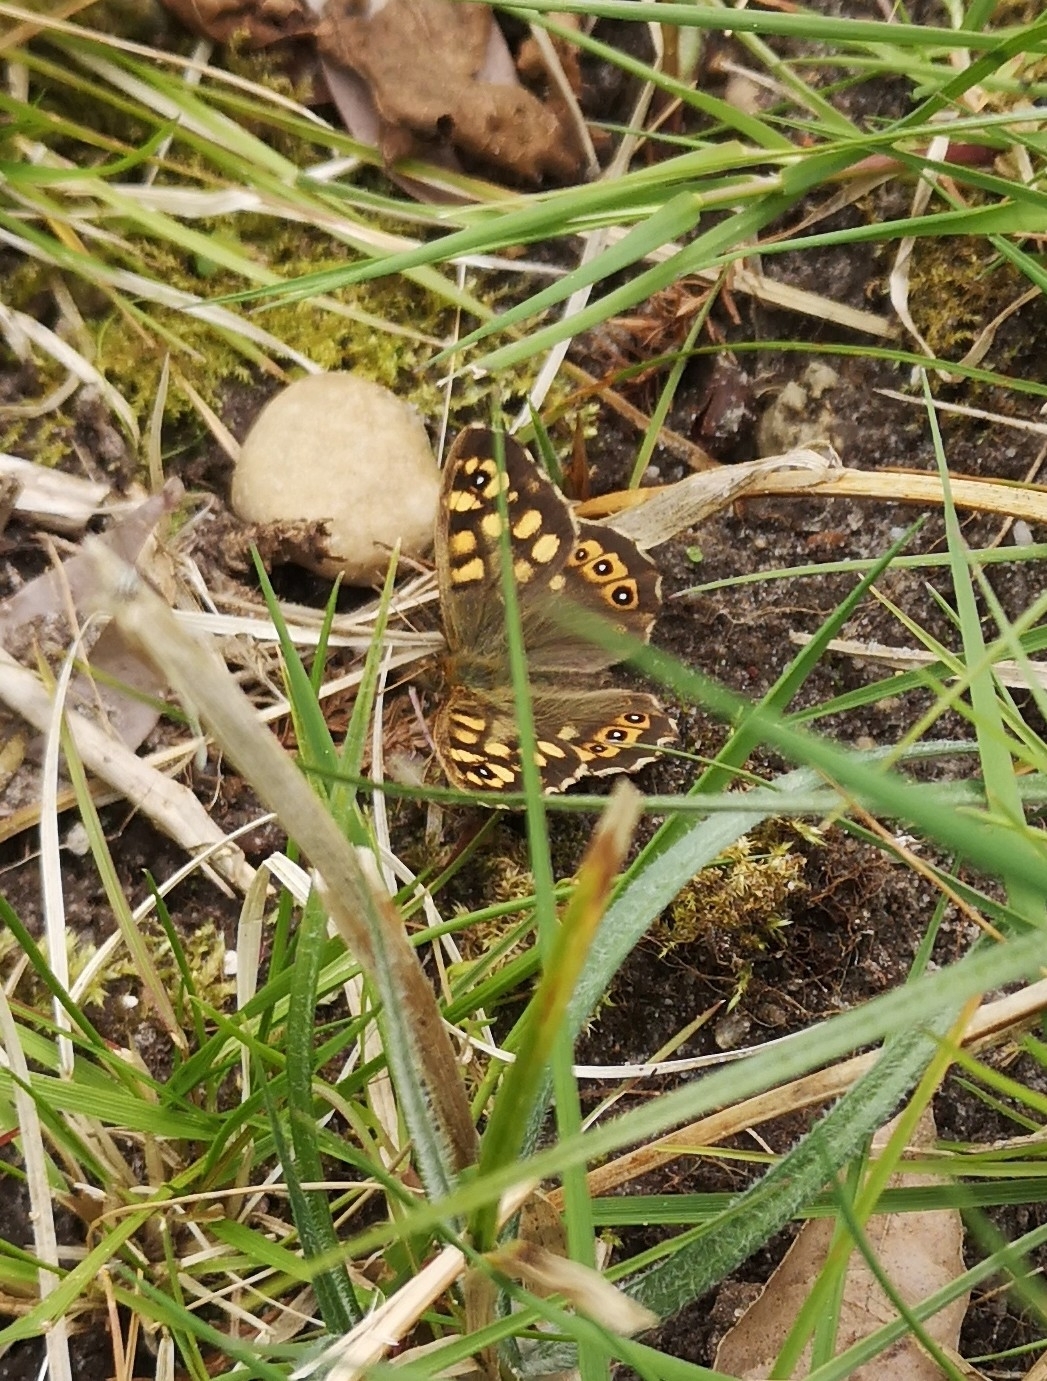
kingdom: Animalia
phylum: Arthropoda
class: Insecta
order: Lepidoptera
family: Nymphalidae
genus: Pararge
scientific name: Pararge aegeria
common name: Speckled wood
